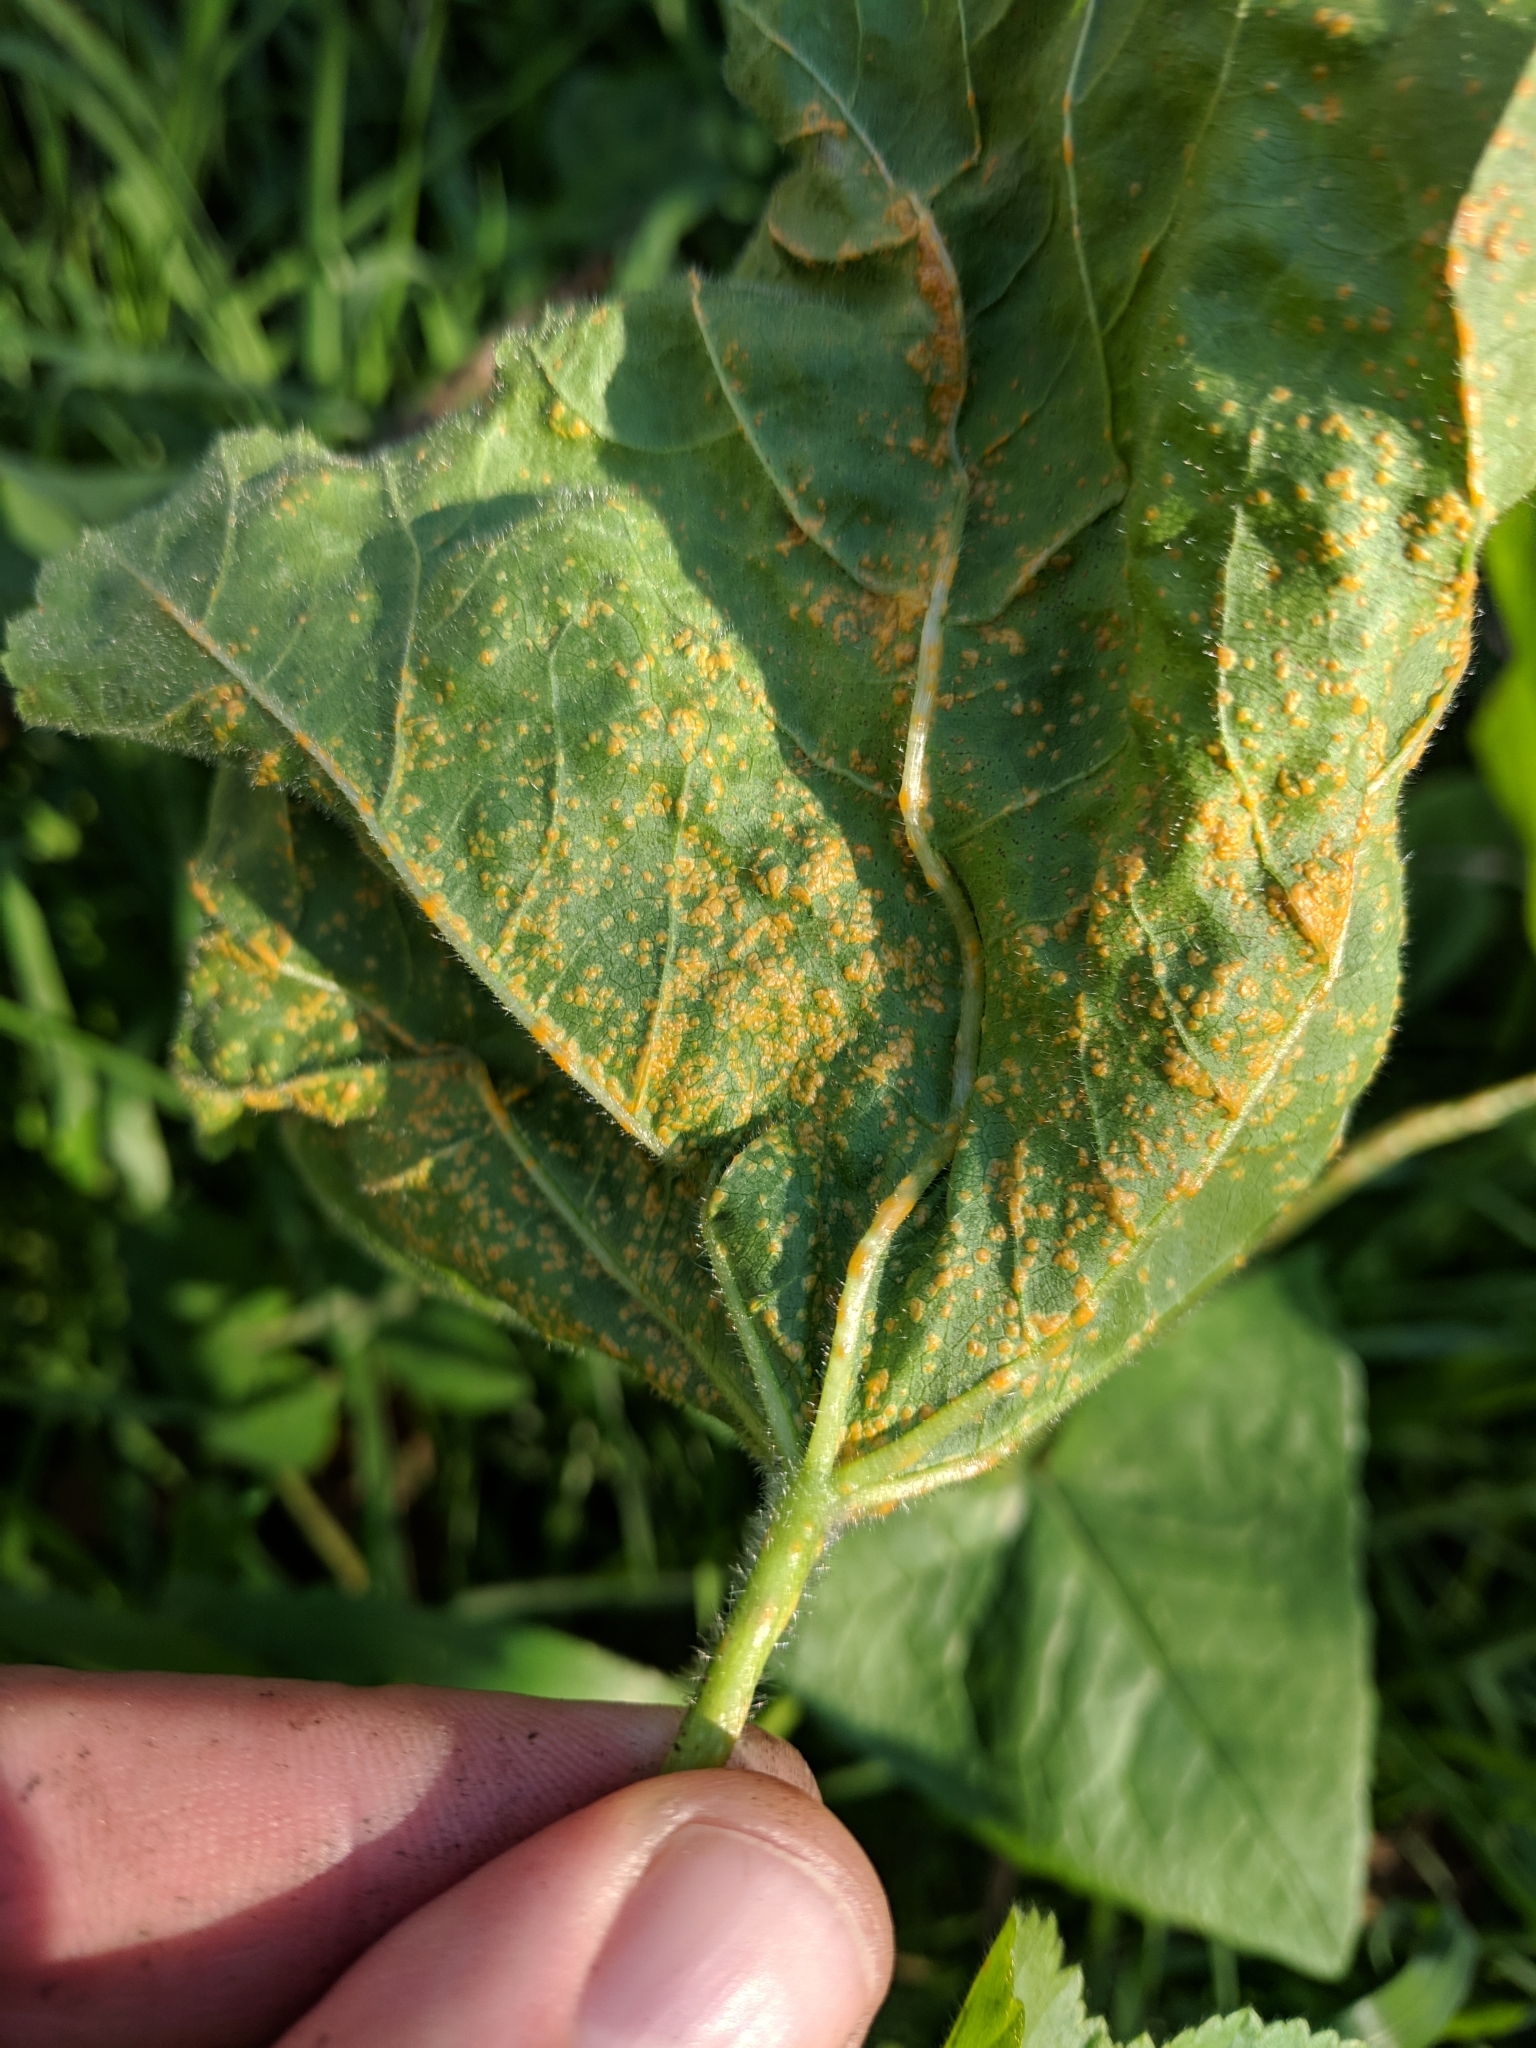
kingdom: Fungi
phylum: Basidiomycota
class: Pucciniomycetes
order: Pucciniales
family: Pucciniaceae
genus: Puccinia
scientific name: Puccinia malvacearum
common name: Hollyhock rust
